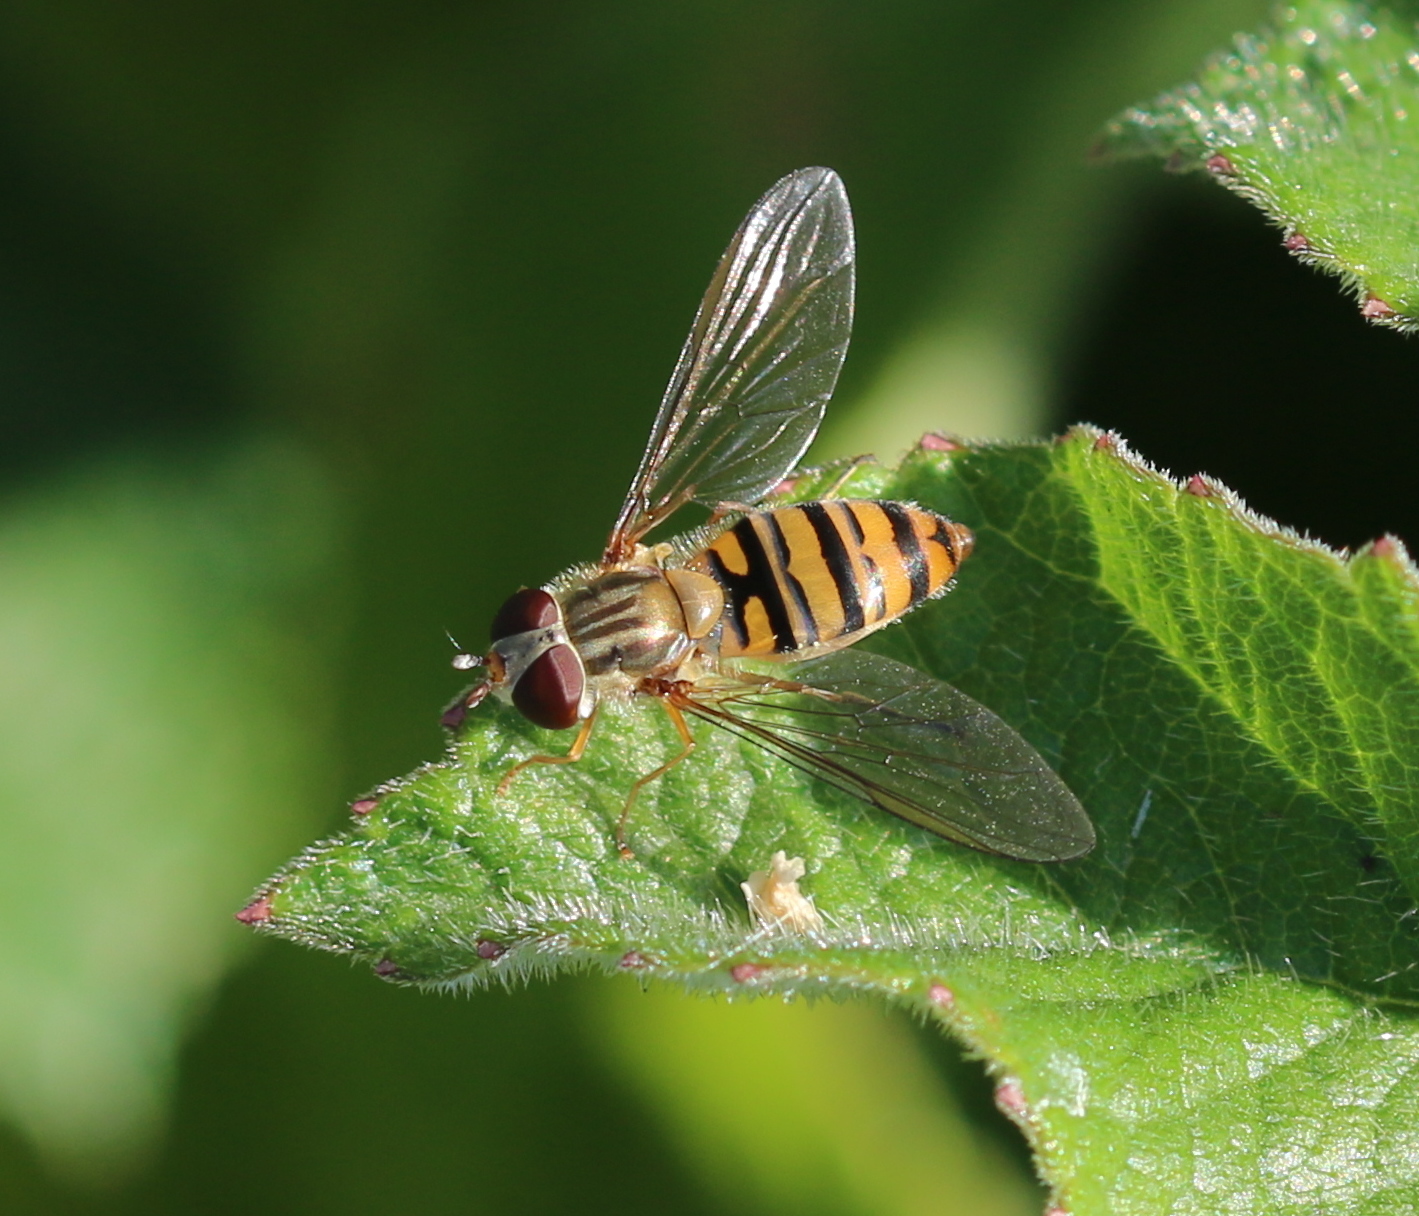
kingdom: Animalia
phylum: Arthropoda
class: Insecta
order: Diptera
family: Syrphidae
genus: Episyrphus
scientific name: Episyrphus balteatus
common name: Marmalade hoverfly
